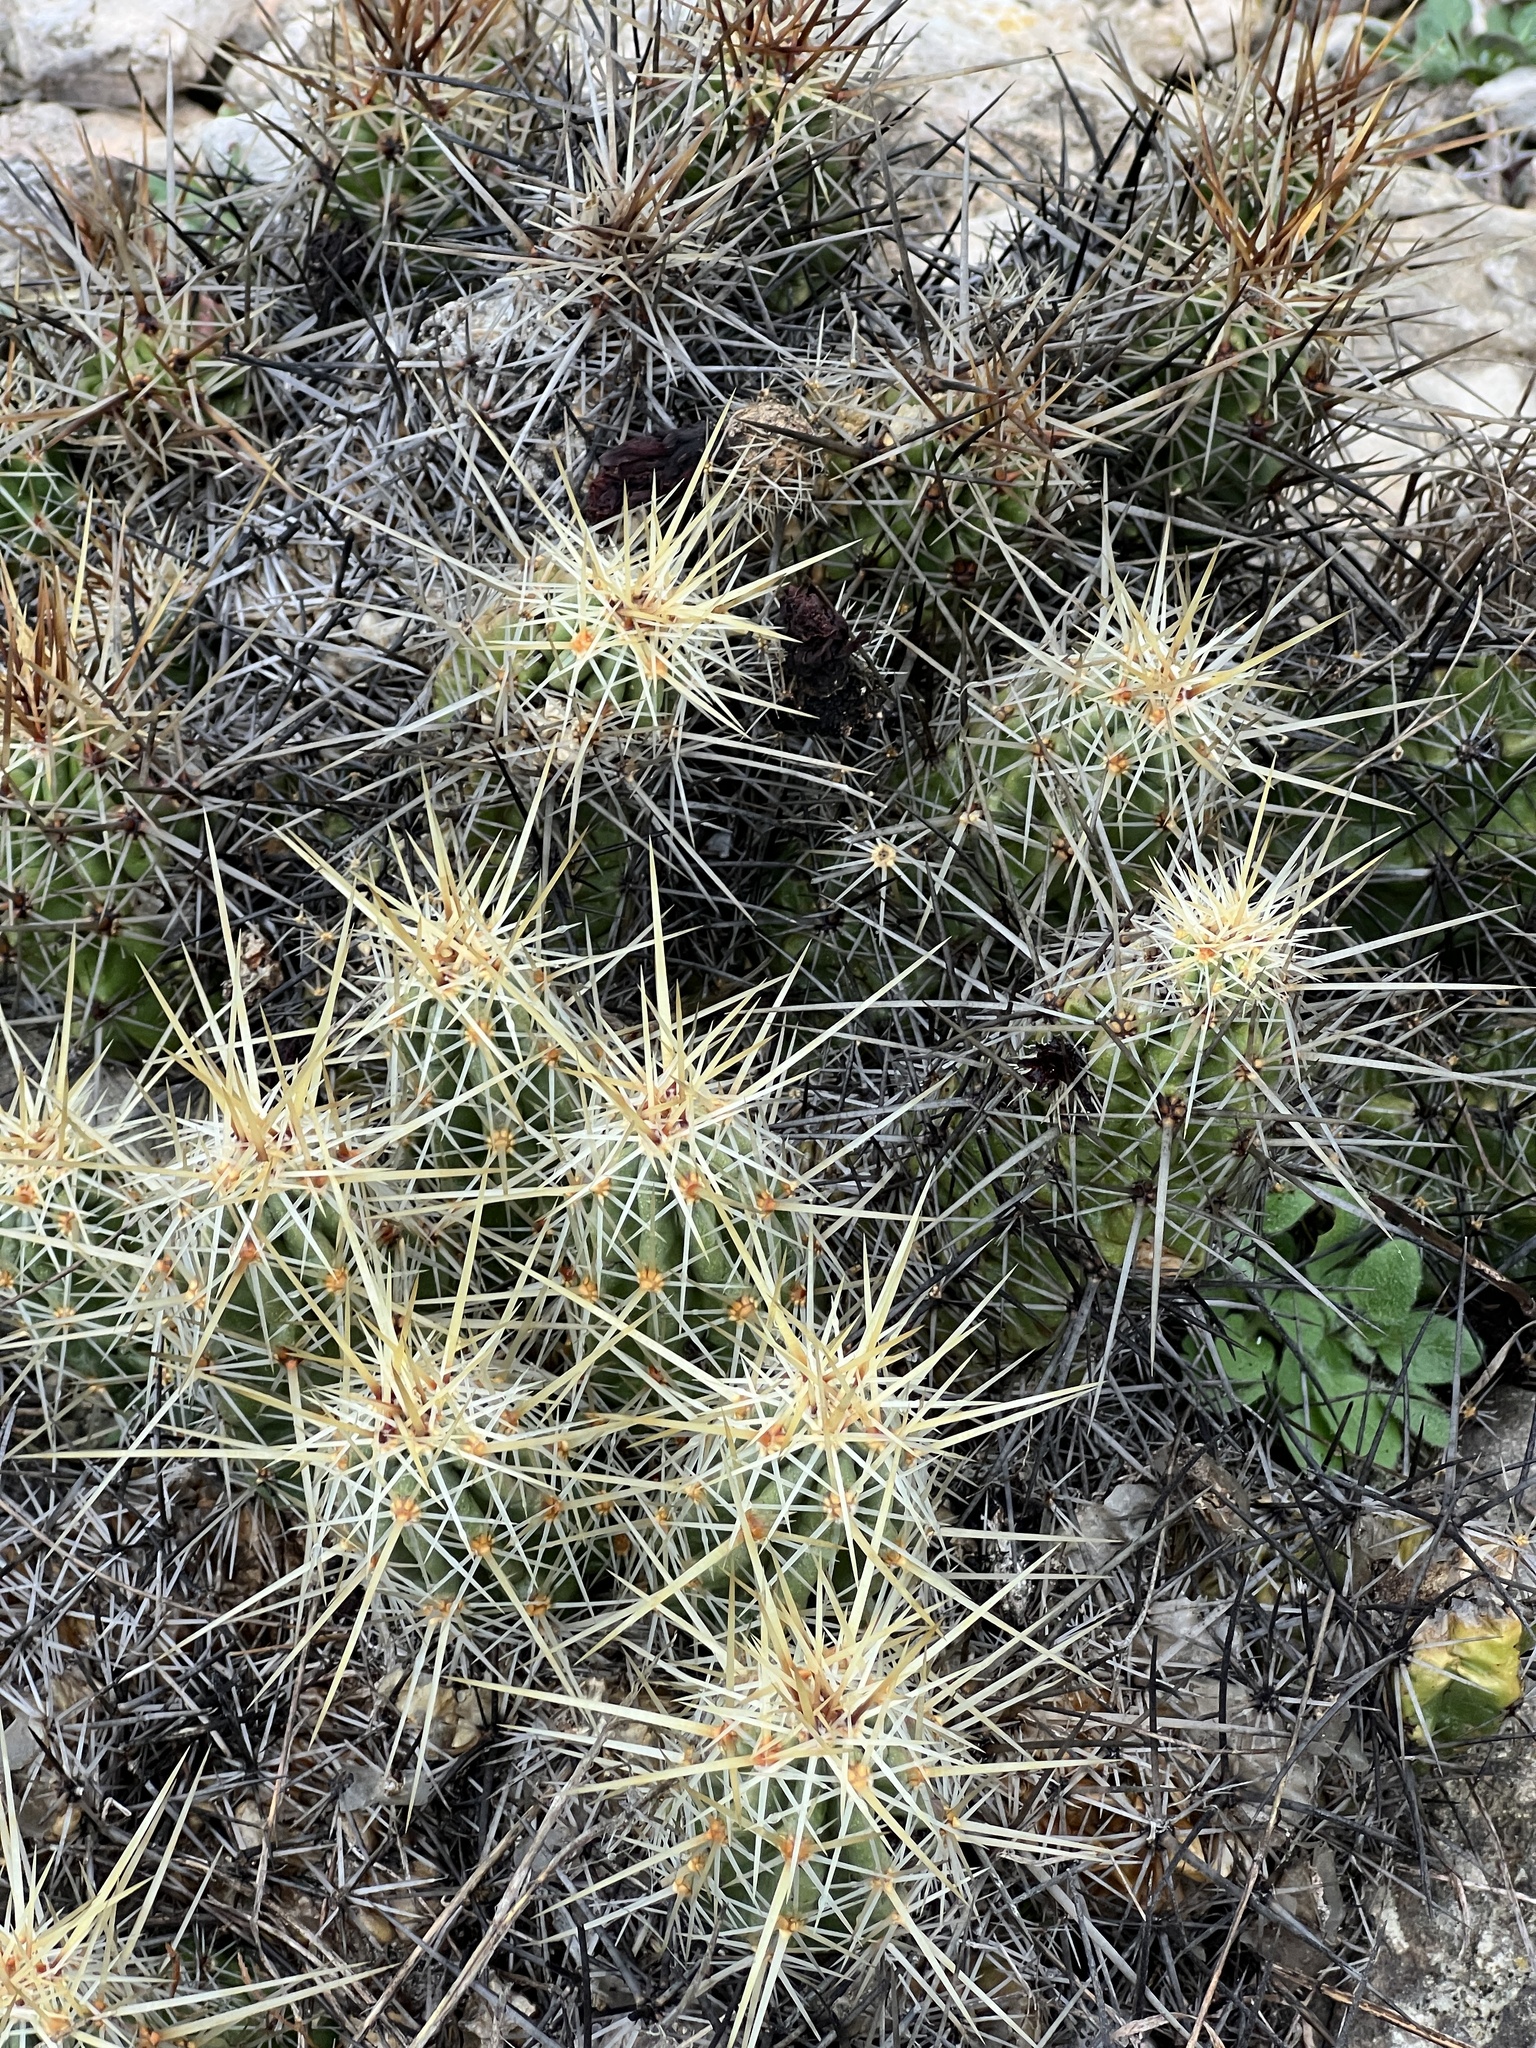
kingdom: Plantae
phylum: Tracheophyta
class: Magnoliopsida
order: Caryophyllales
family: Cactaceae
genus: Echinocereus
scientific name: Echinocereus enneacanthus
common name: Pitaya
